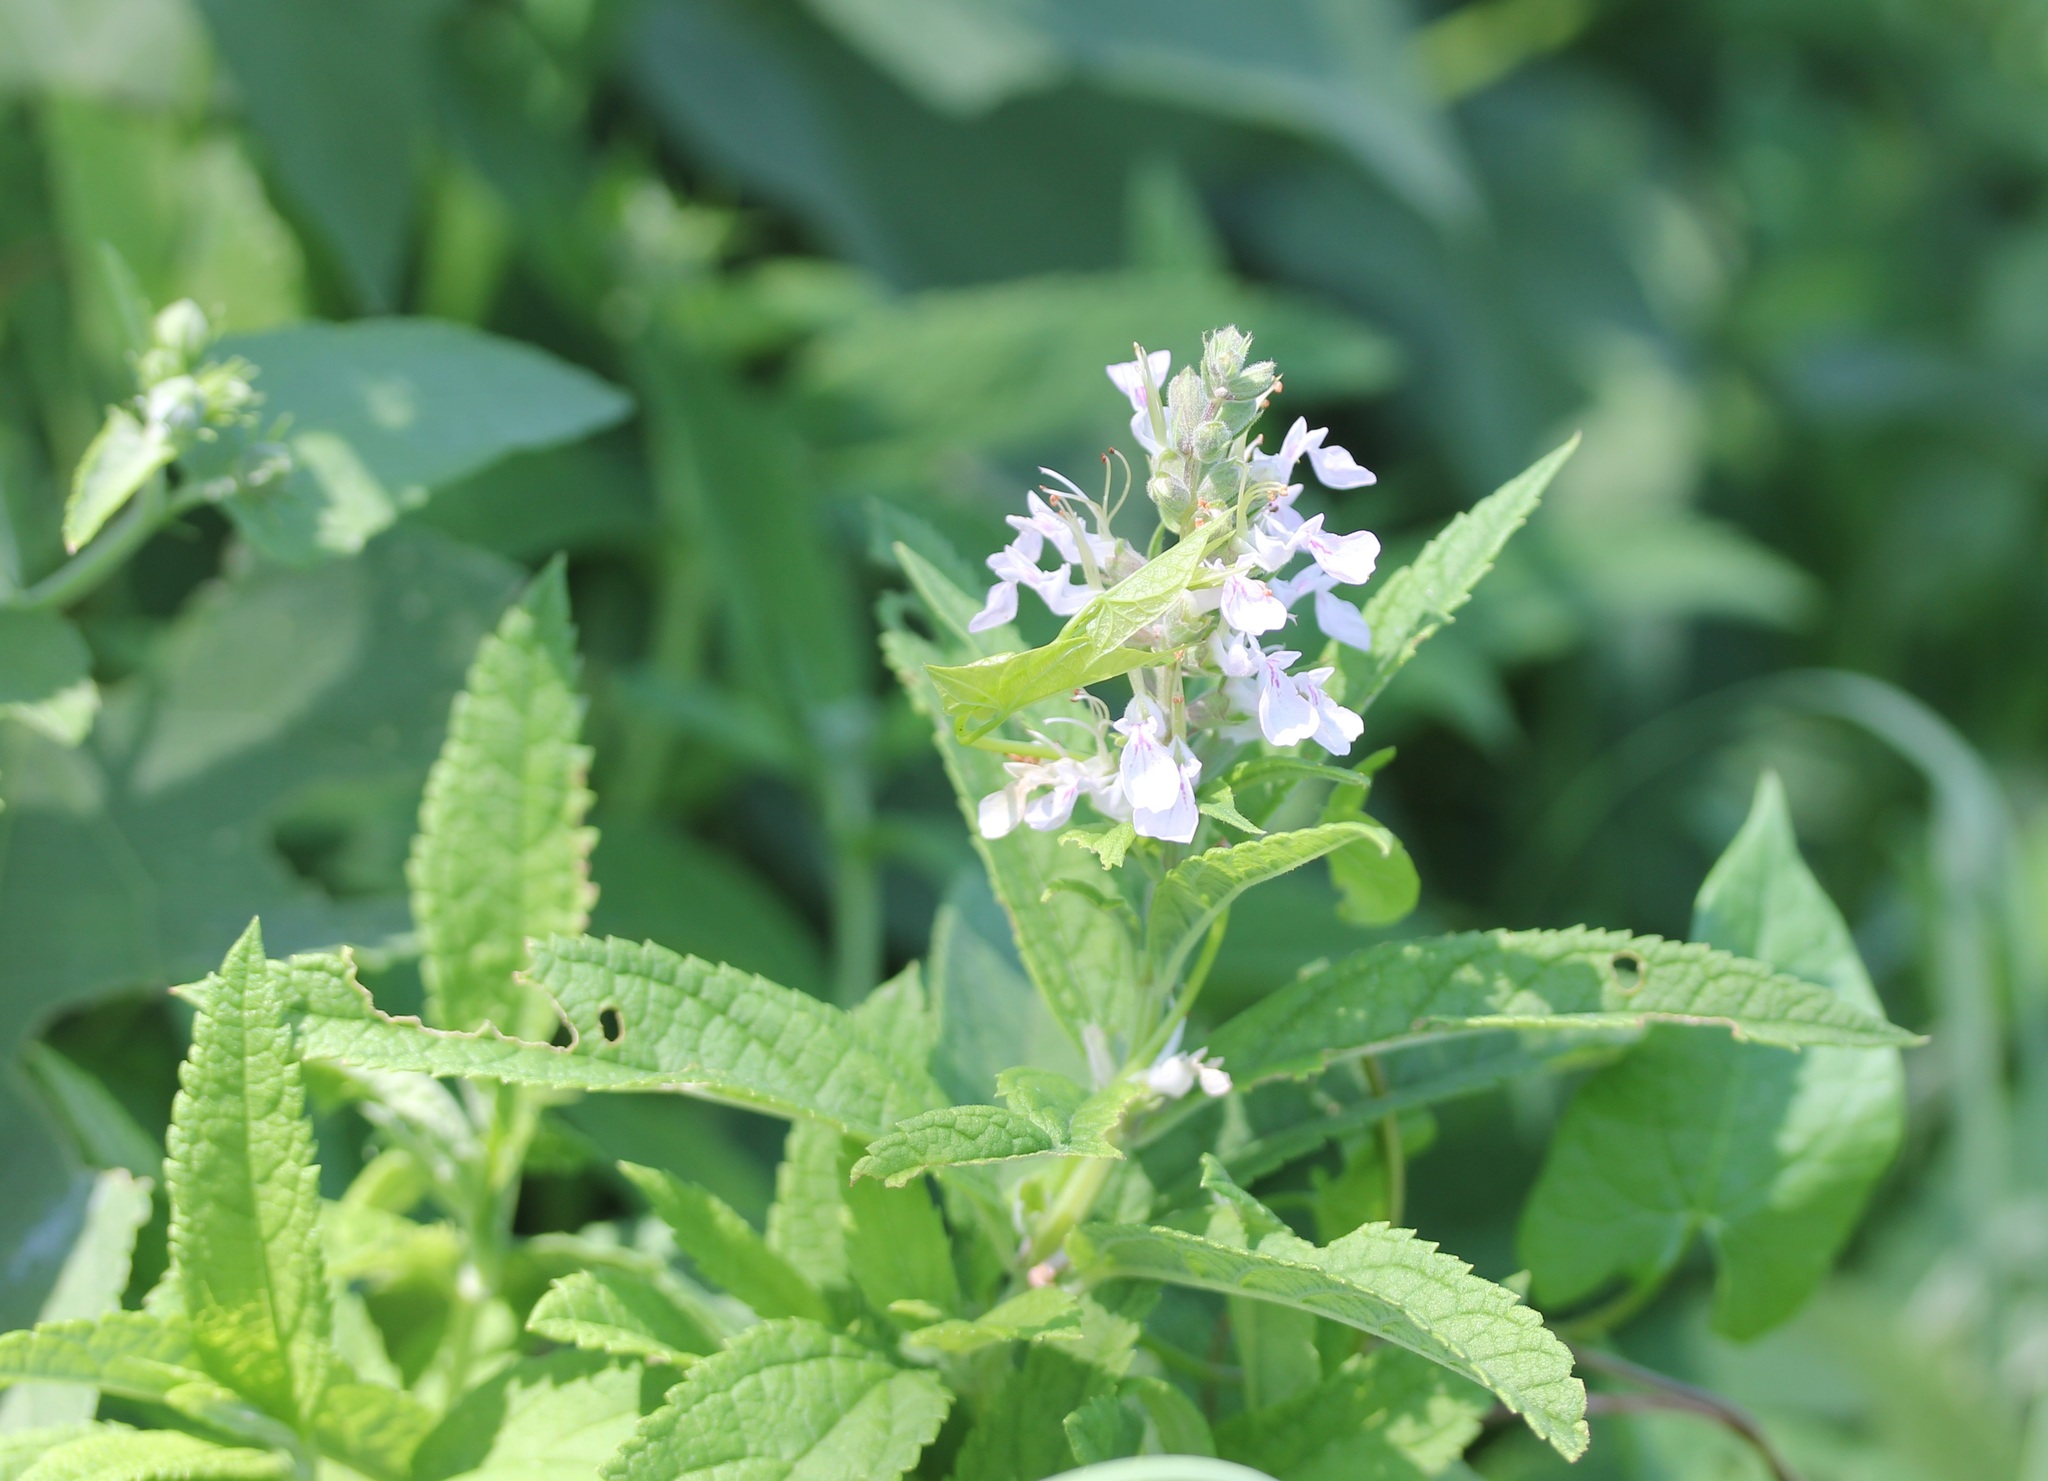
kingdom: Plantae
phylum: Tracheophyta
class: Magnoliopsida
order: Lamiales
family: Lamiaceae
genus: Teucrium
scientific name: Teucrium canadense
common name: American germander
